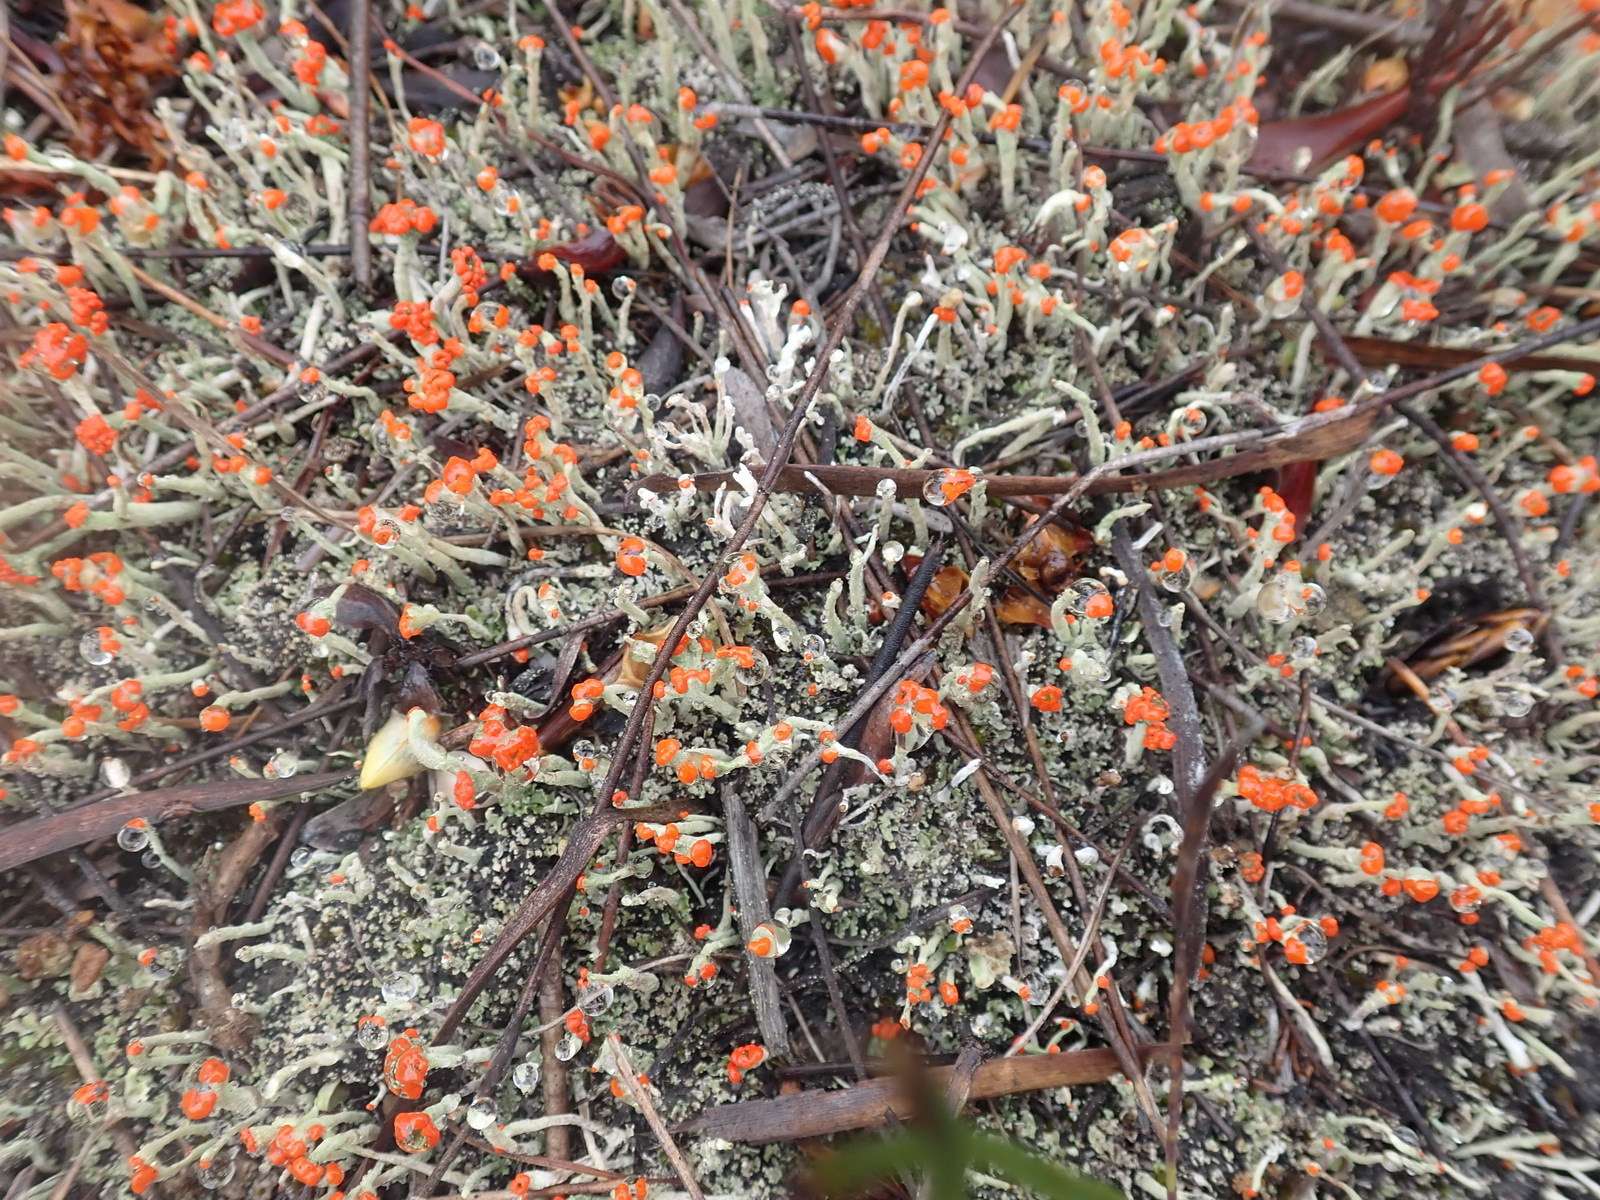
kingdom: Fungi
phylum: Ascomycota
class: Lecanoromycetes
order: Lecanorales
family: Cladoniaceae
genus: Cladonia
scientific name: Cladonia floerkeana
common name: Gritty british soldiers lichen
